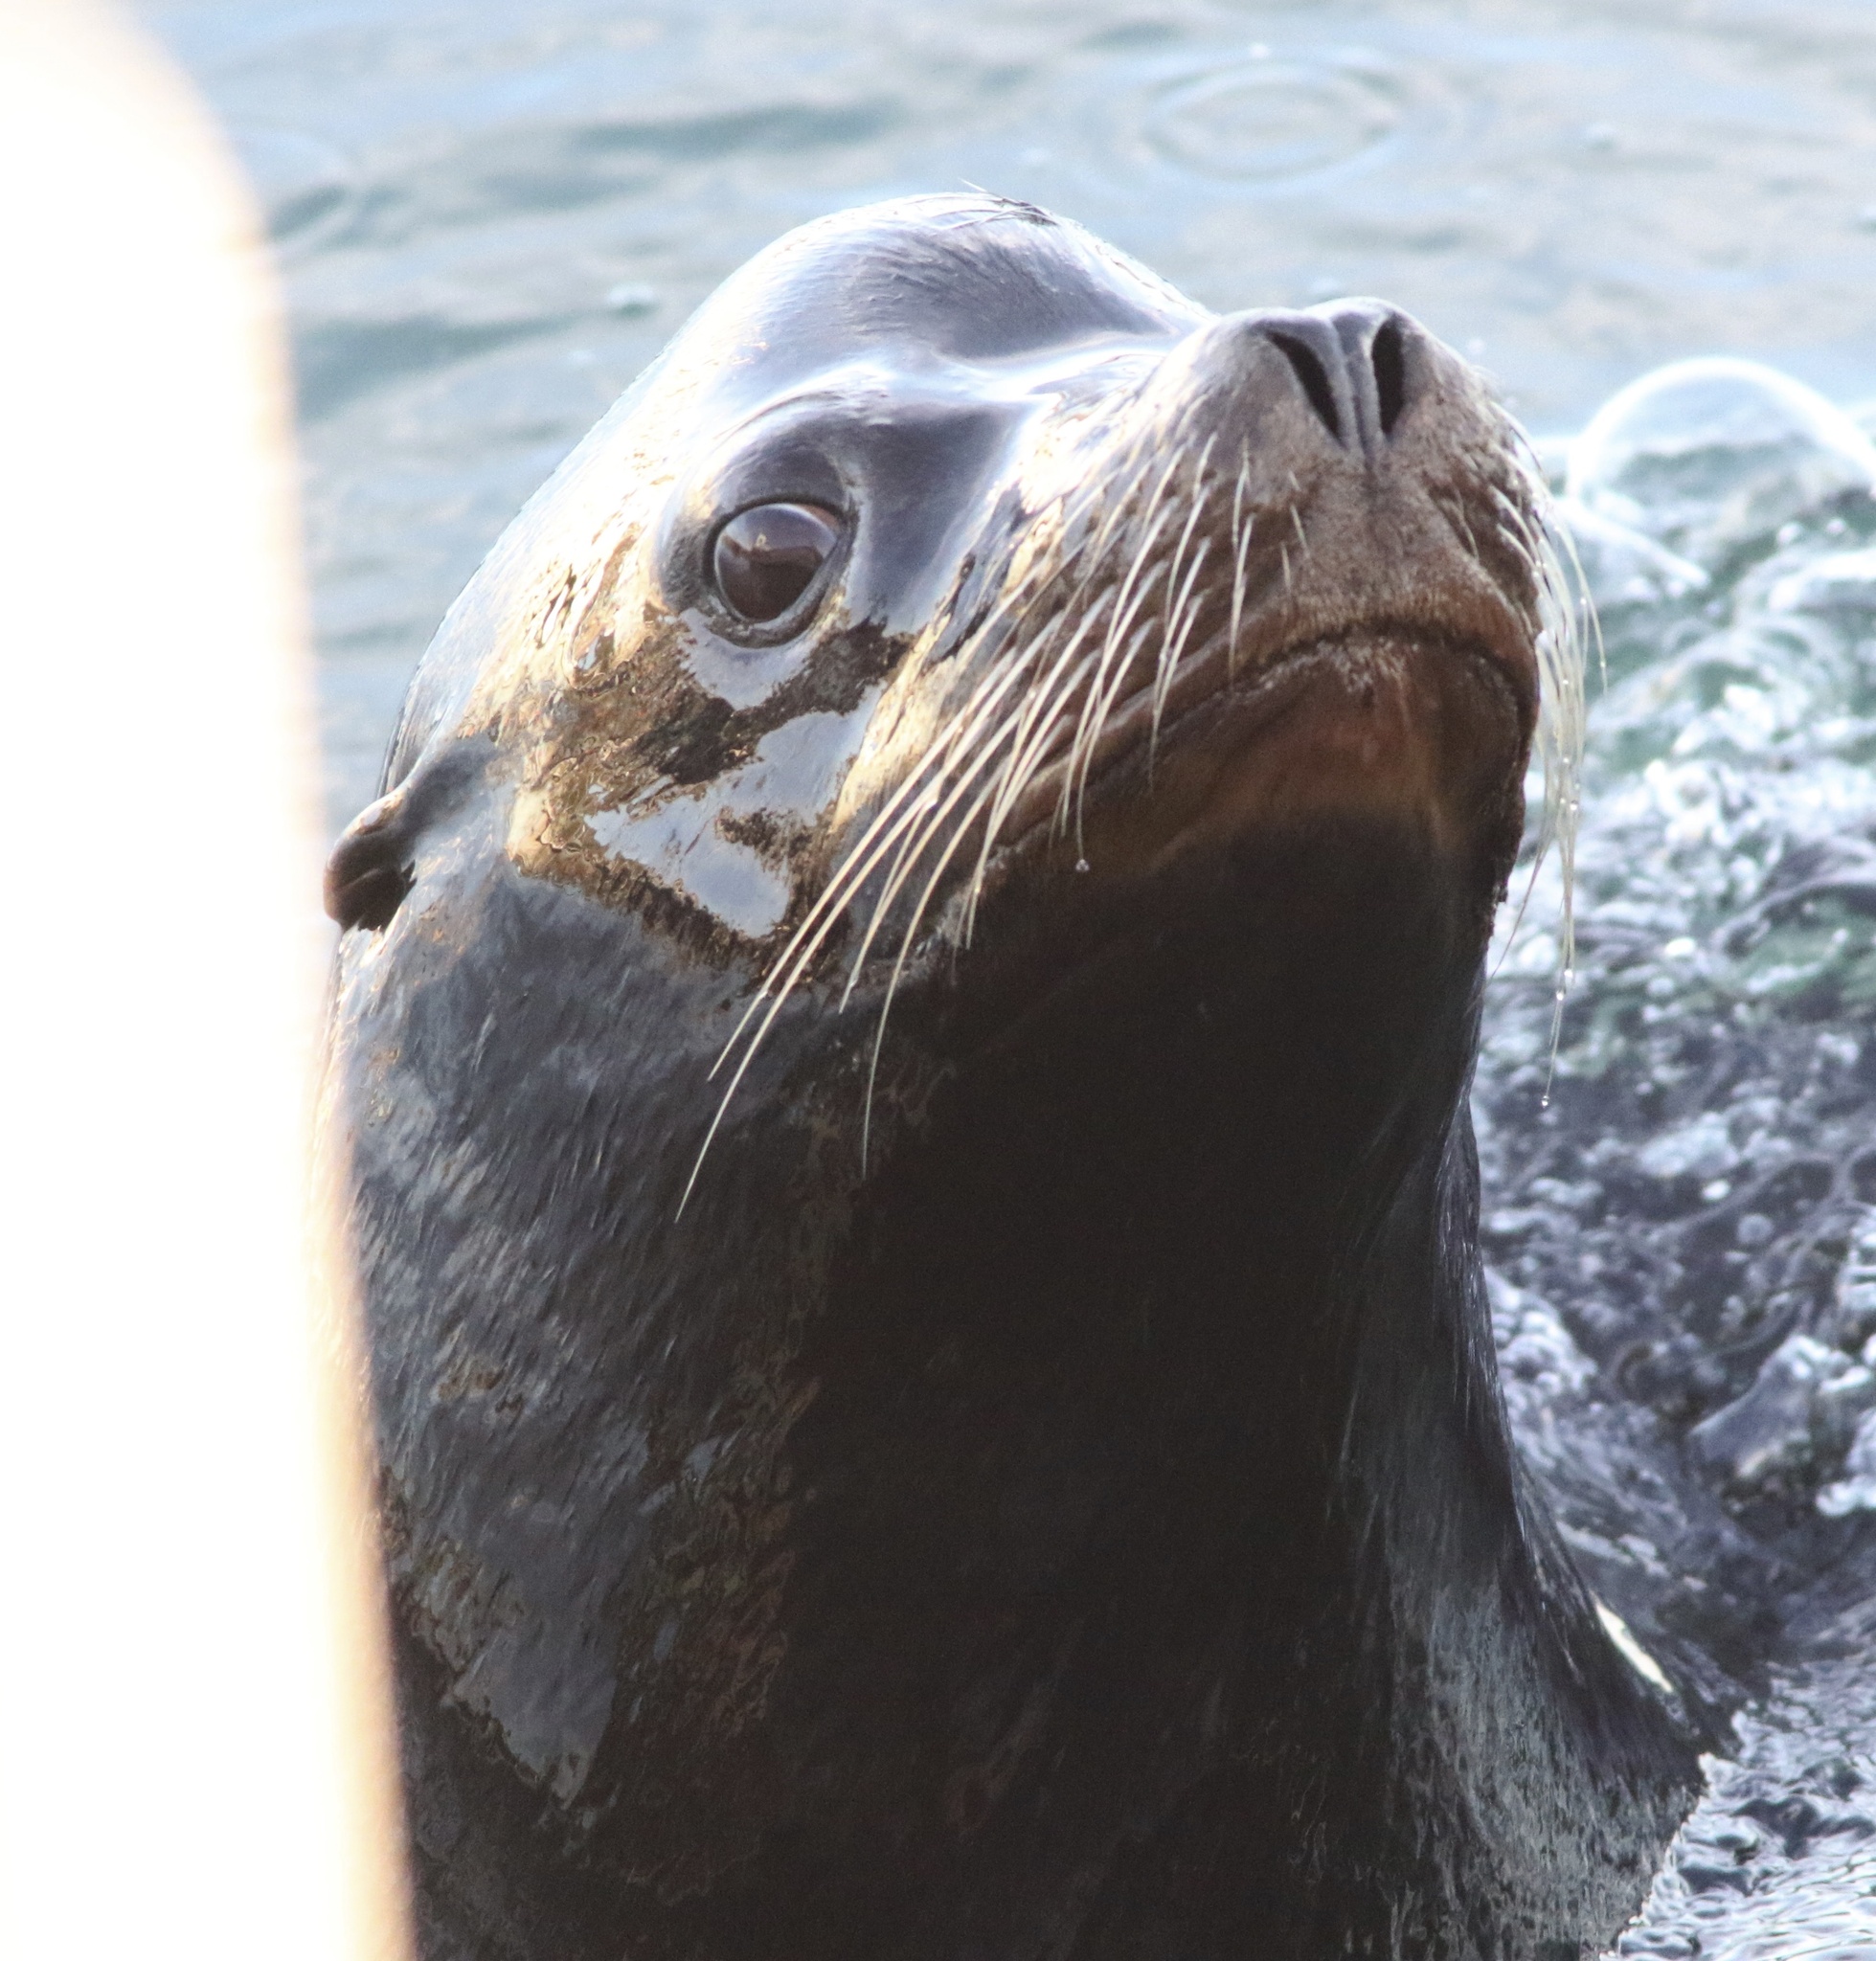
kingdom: Animalia
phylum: Chordata
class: Mammalia
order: Carnivora
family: Otariidae
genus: Zalophus
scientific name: Zalophus californianus
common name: California sea lion
